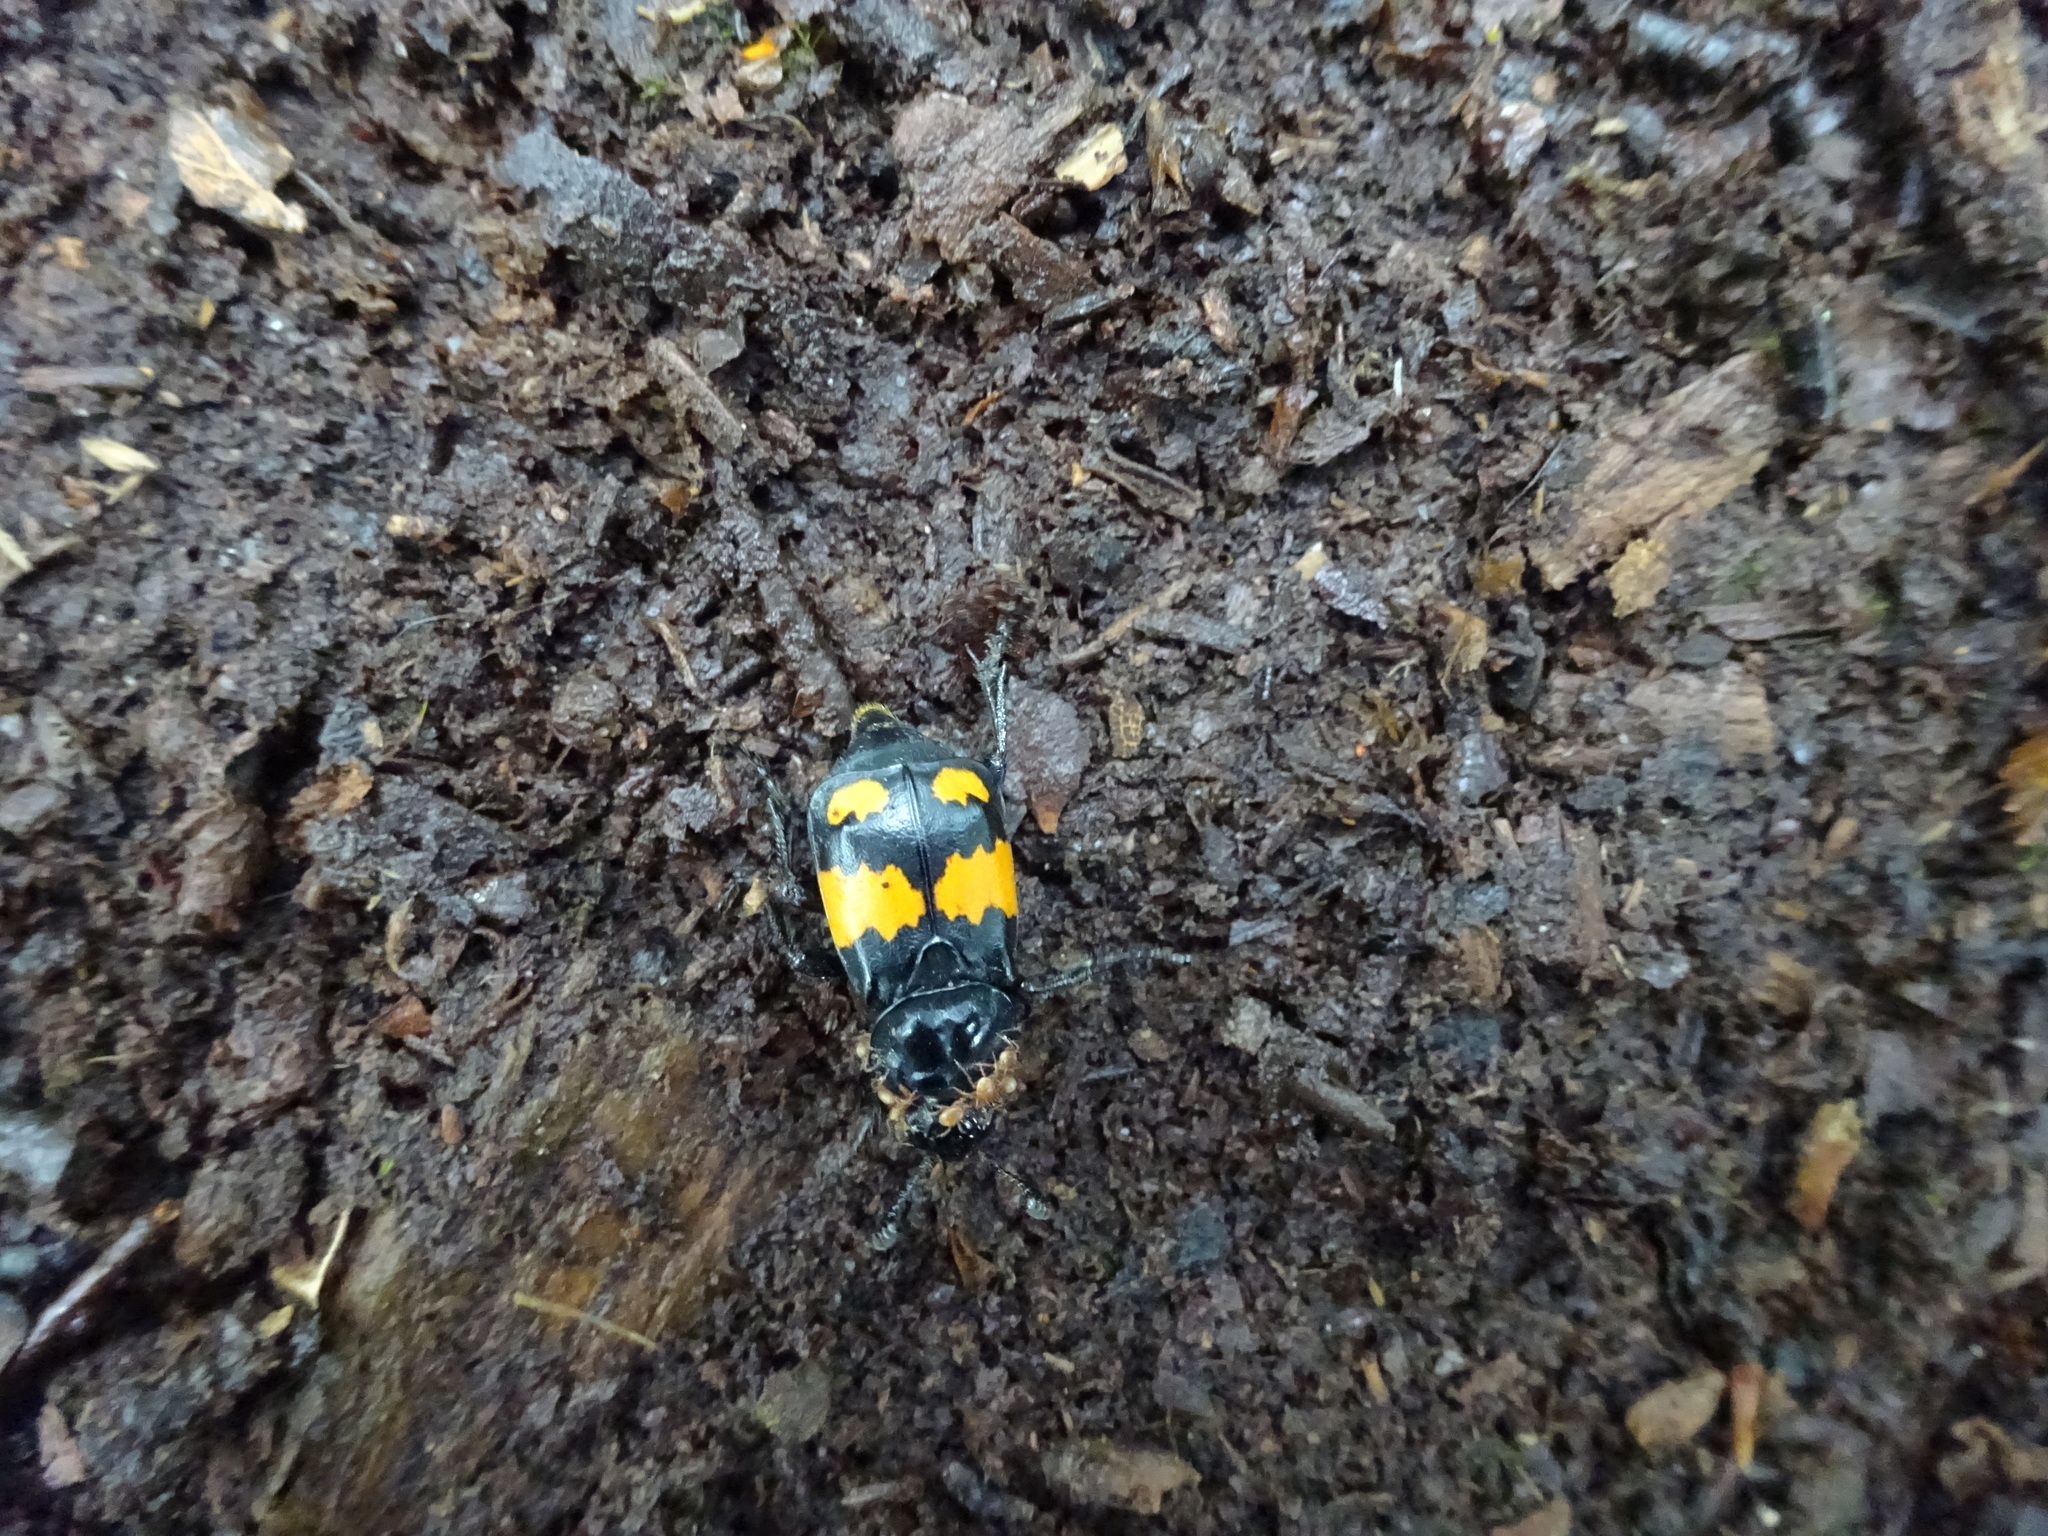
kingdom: Animalia
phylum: Arthropoda
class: Insecta
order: Coleoptera
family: Staphylinidae
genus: Nicrophorus
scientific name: Nicrophorus vespilloides
